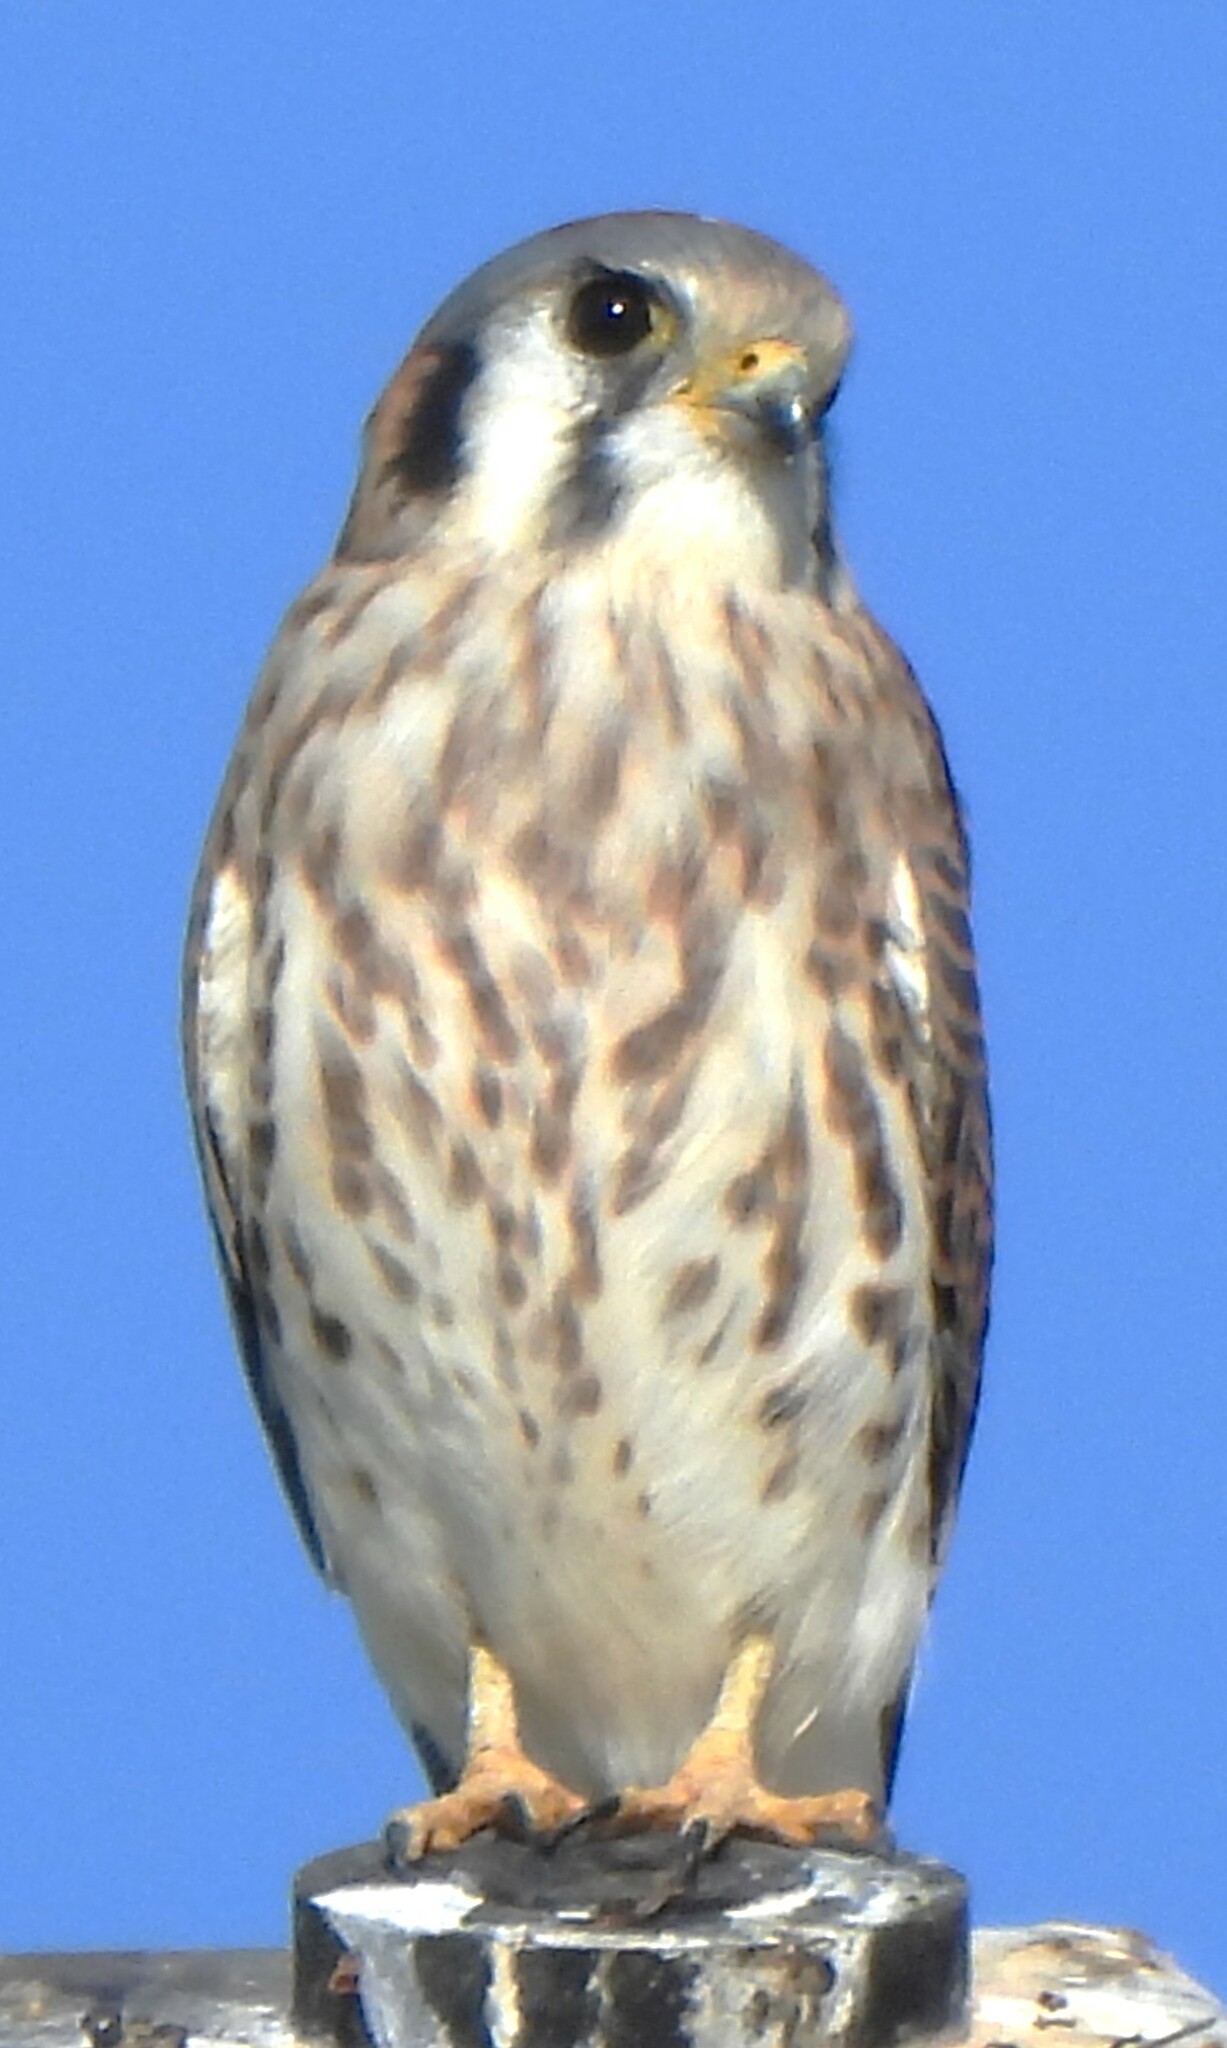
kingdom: Animalia
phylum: Chordata
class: Aves
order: Falconiformes
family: Falconidae
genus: Falco
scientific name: Falco sparverius
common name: American kestrel
